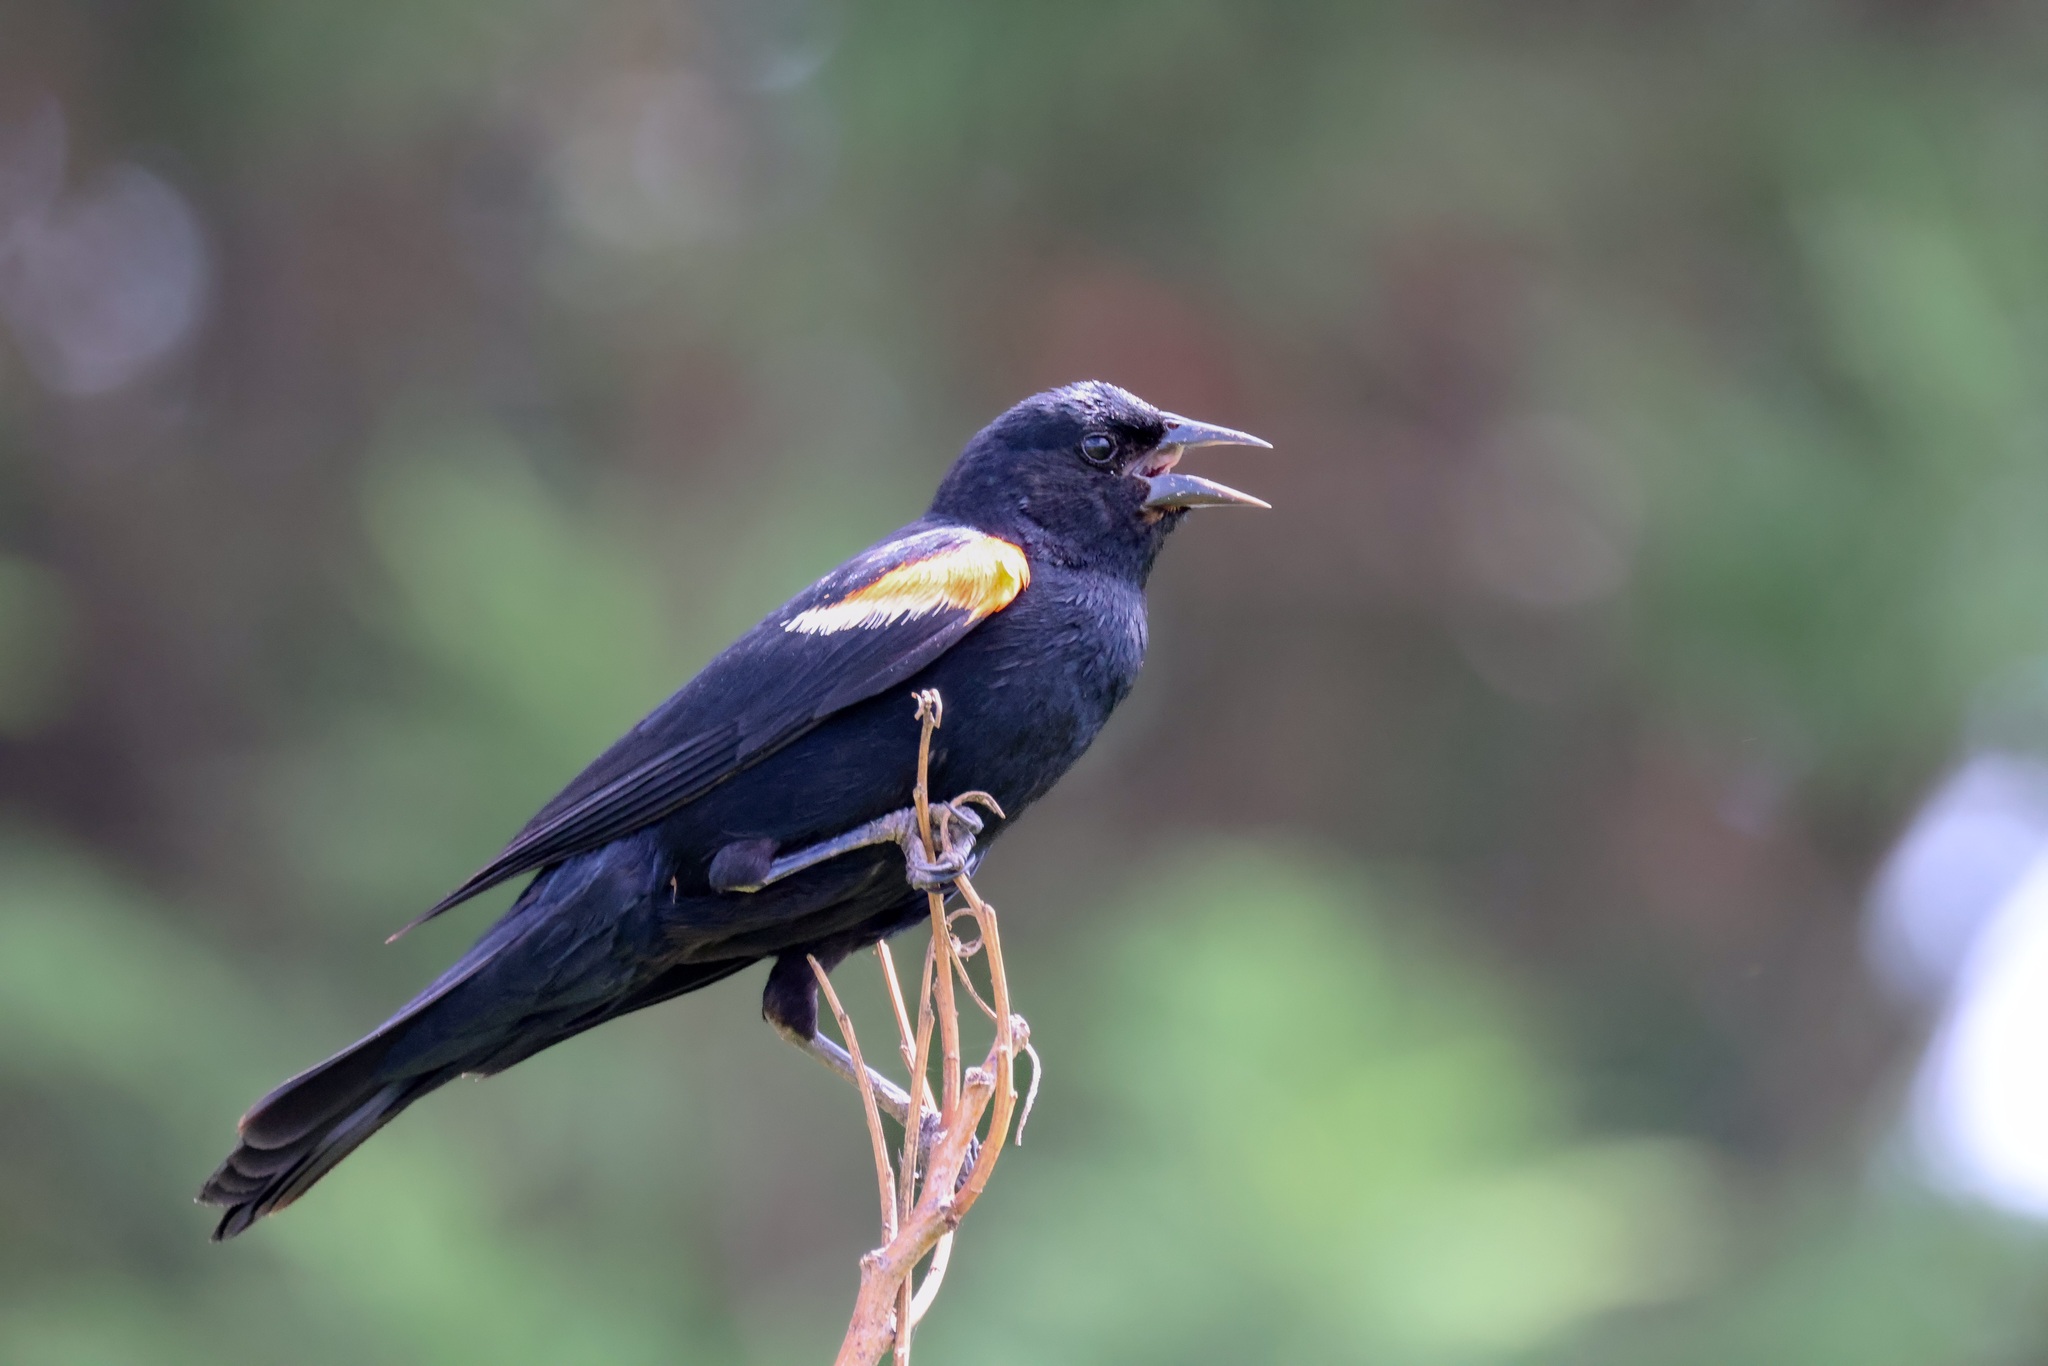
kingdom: Animalia
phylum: Chordata
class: Aves
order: Passeriformes
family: Icteridae
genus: Agelaius
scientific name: Agelaius phoeniceus
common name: Red-winged blackbird
